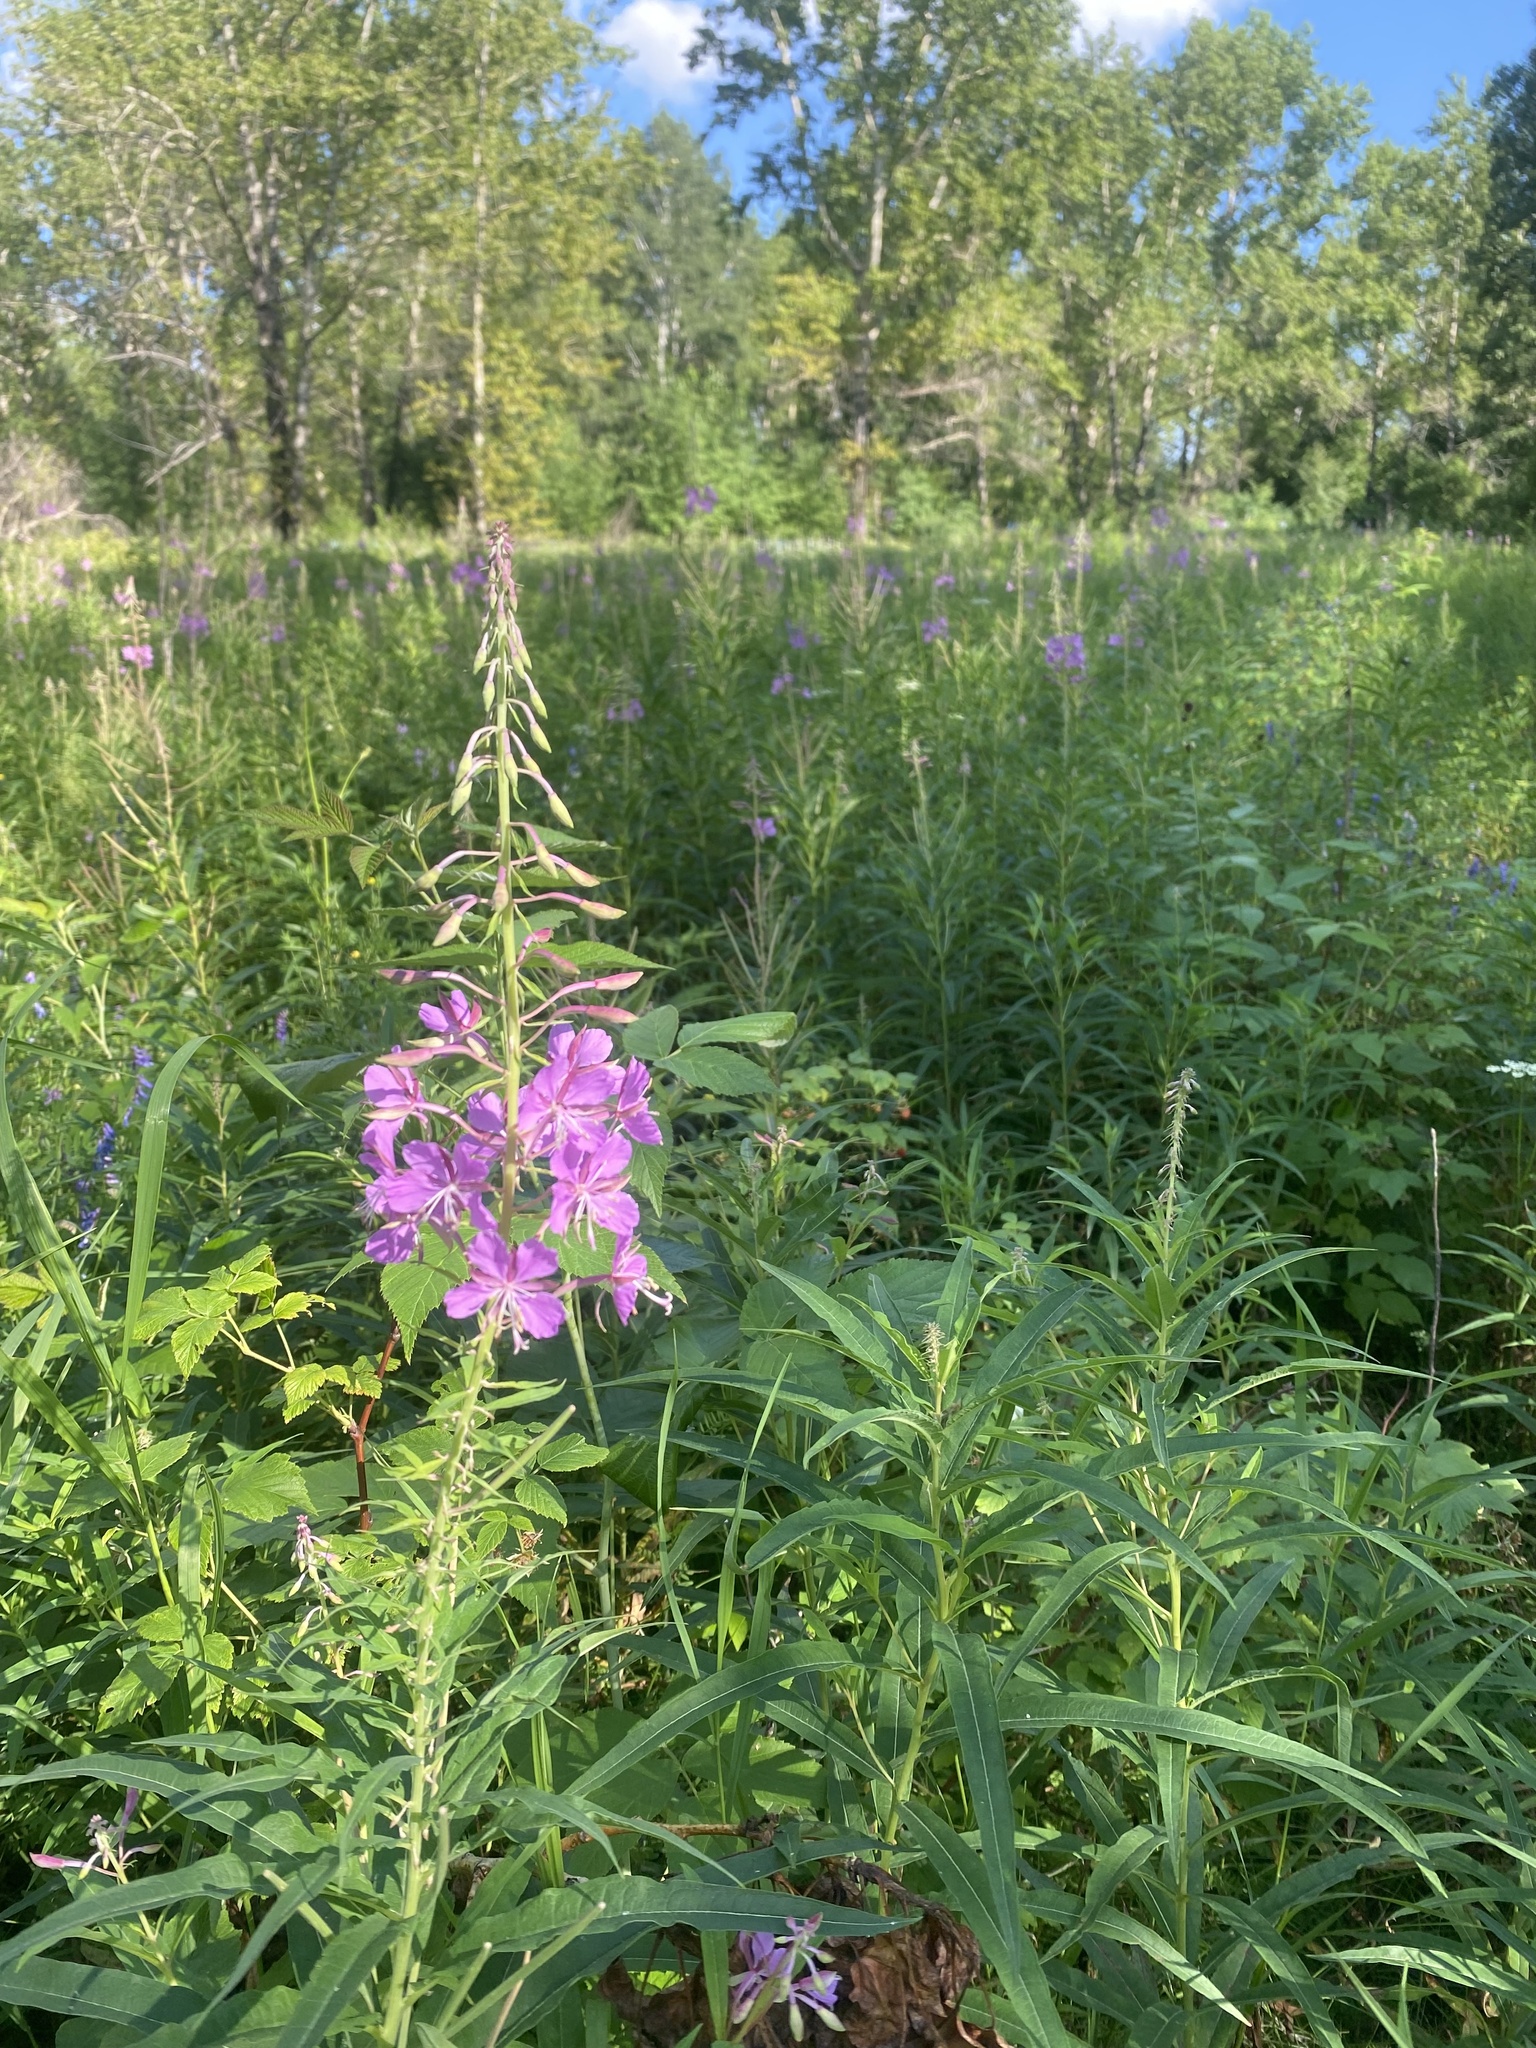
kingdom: Plantae
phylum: Tracheophyta
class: Magnoliopsida
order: Myrtales
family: Onagraceae
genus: Chamaenerion
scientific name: Chamaenerion angustifolium
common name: Fireweed
